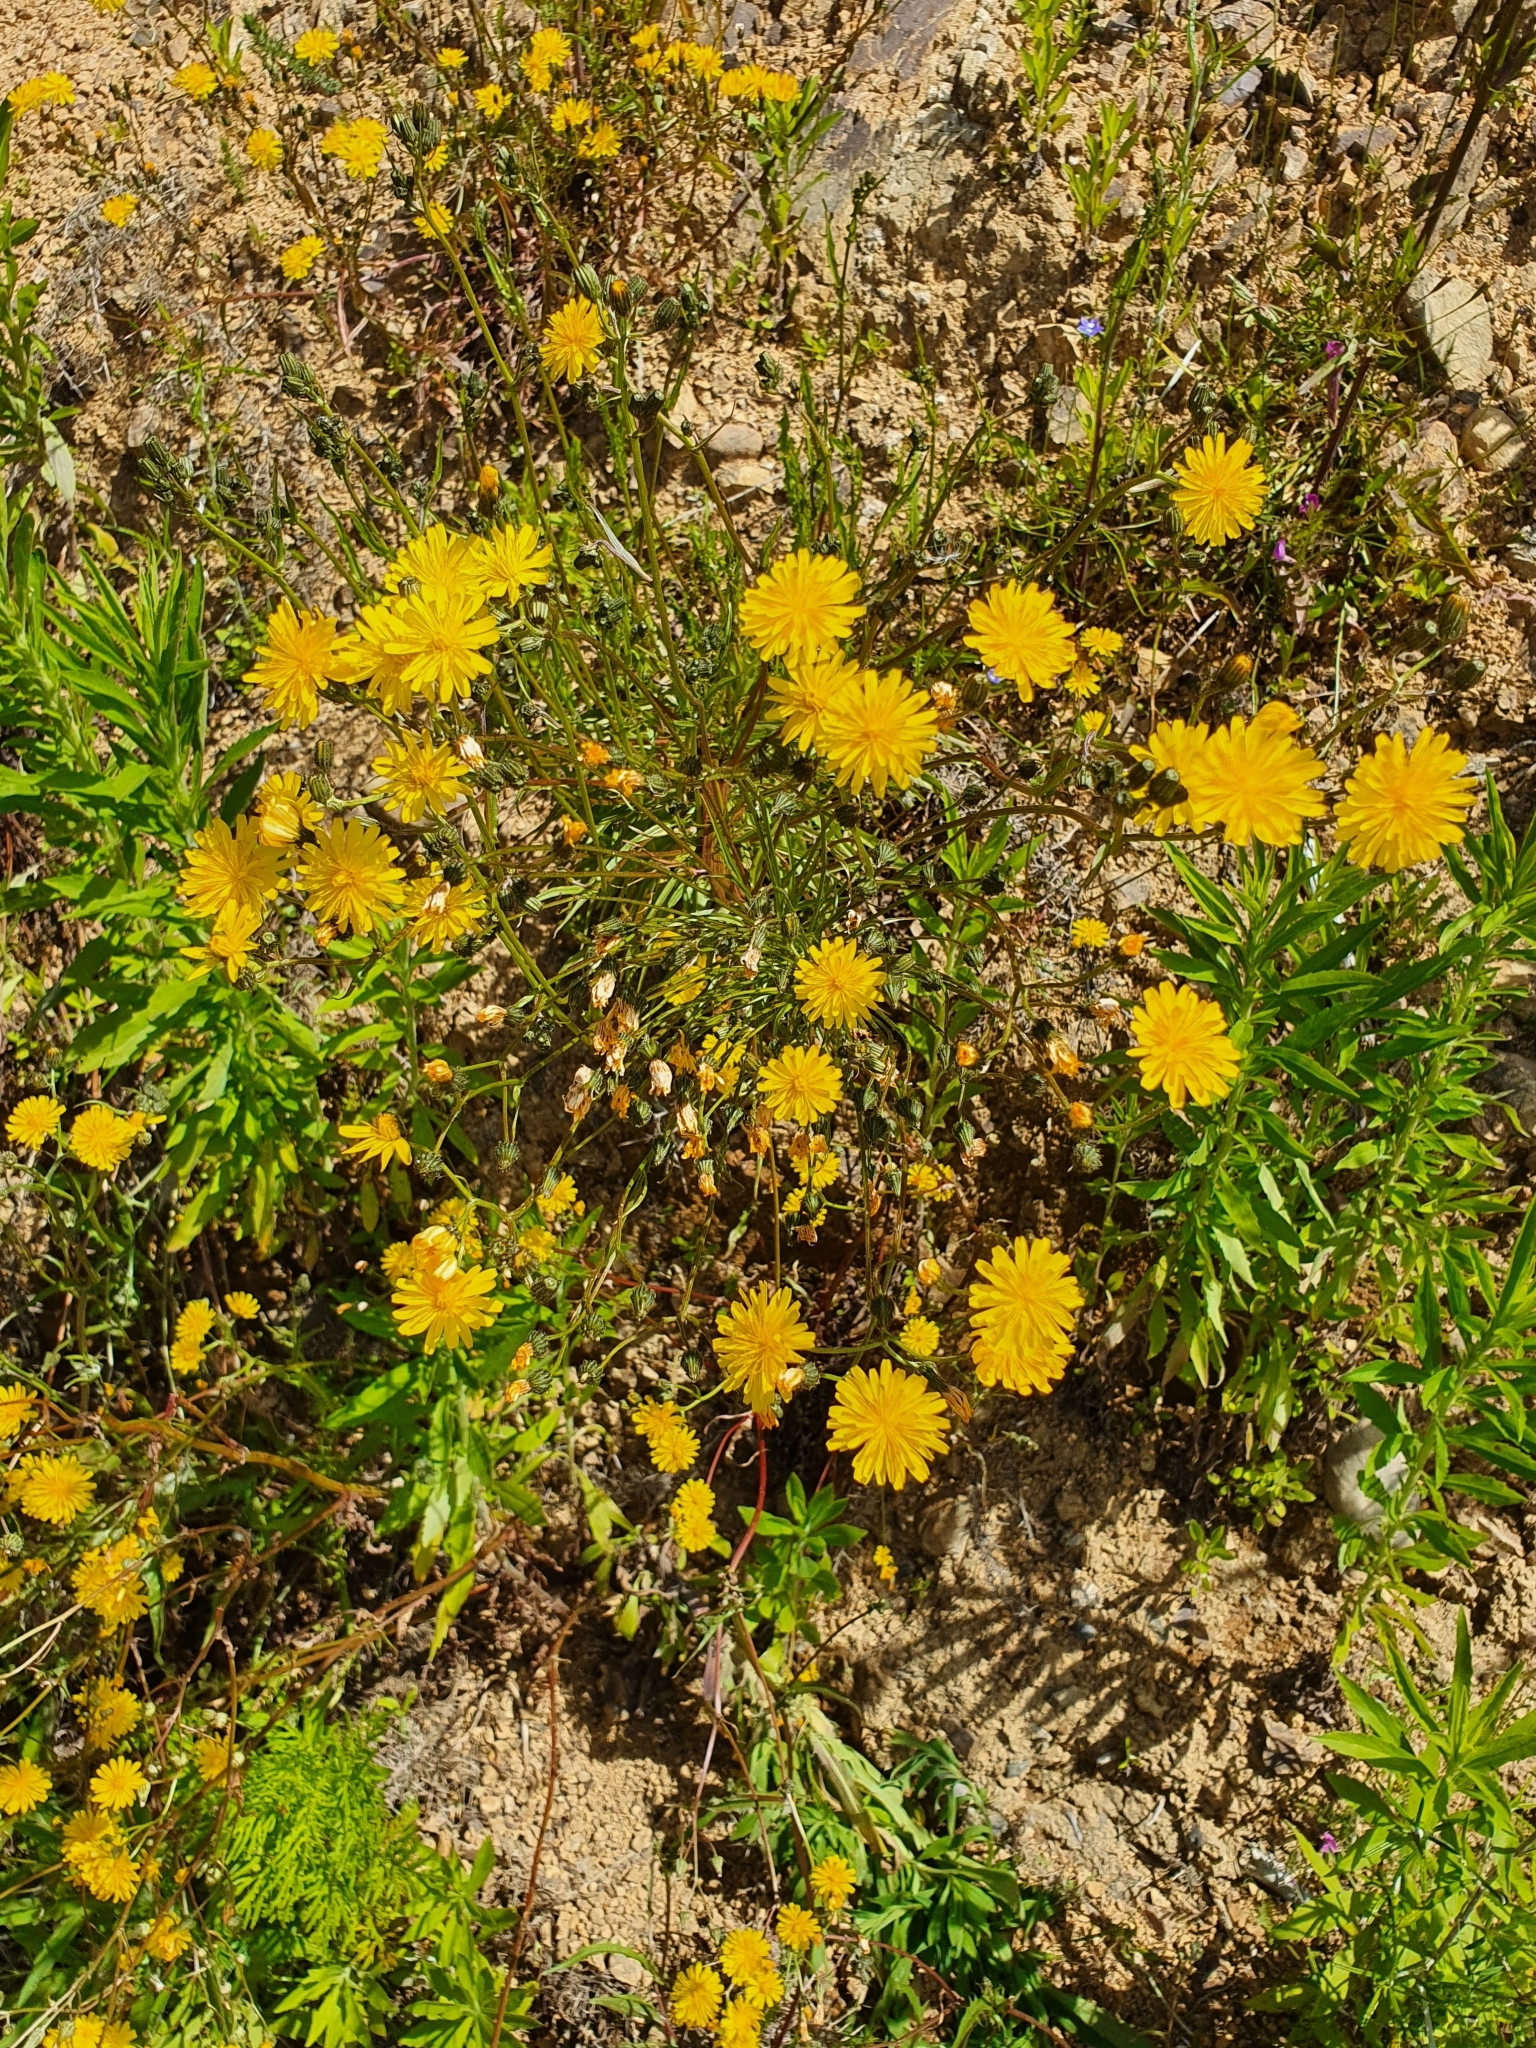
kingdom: Plantae
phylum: Tracheophyta
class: Magnoliopsida
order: Asterales
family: Asteraceae
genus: Crepis
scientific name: Crepis capillaris
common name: Smooth hawksbeard
